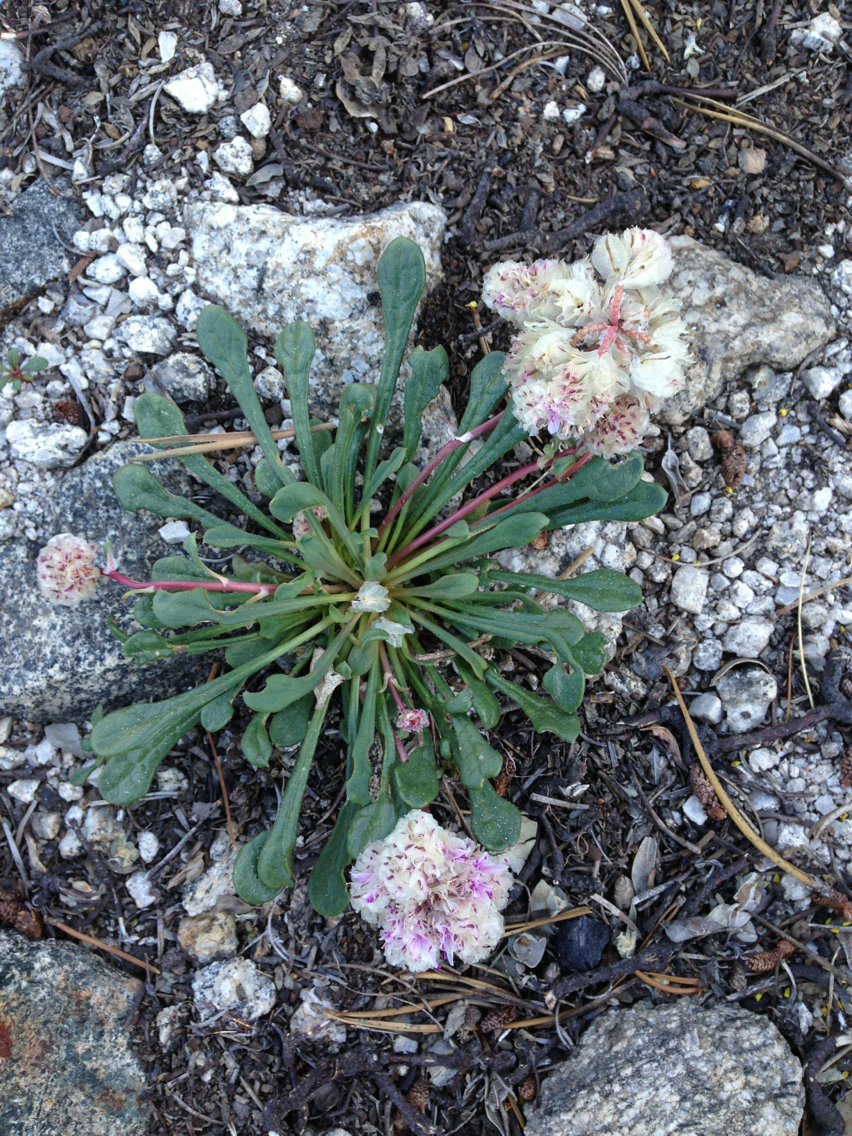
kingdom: Plantae
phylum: Tracheophyta
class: Magnoliopsida
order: Caryophyllales
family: Montiaceae
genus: Calyptridium
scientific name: Calyptridium monospermum
